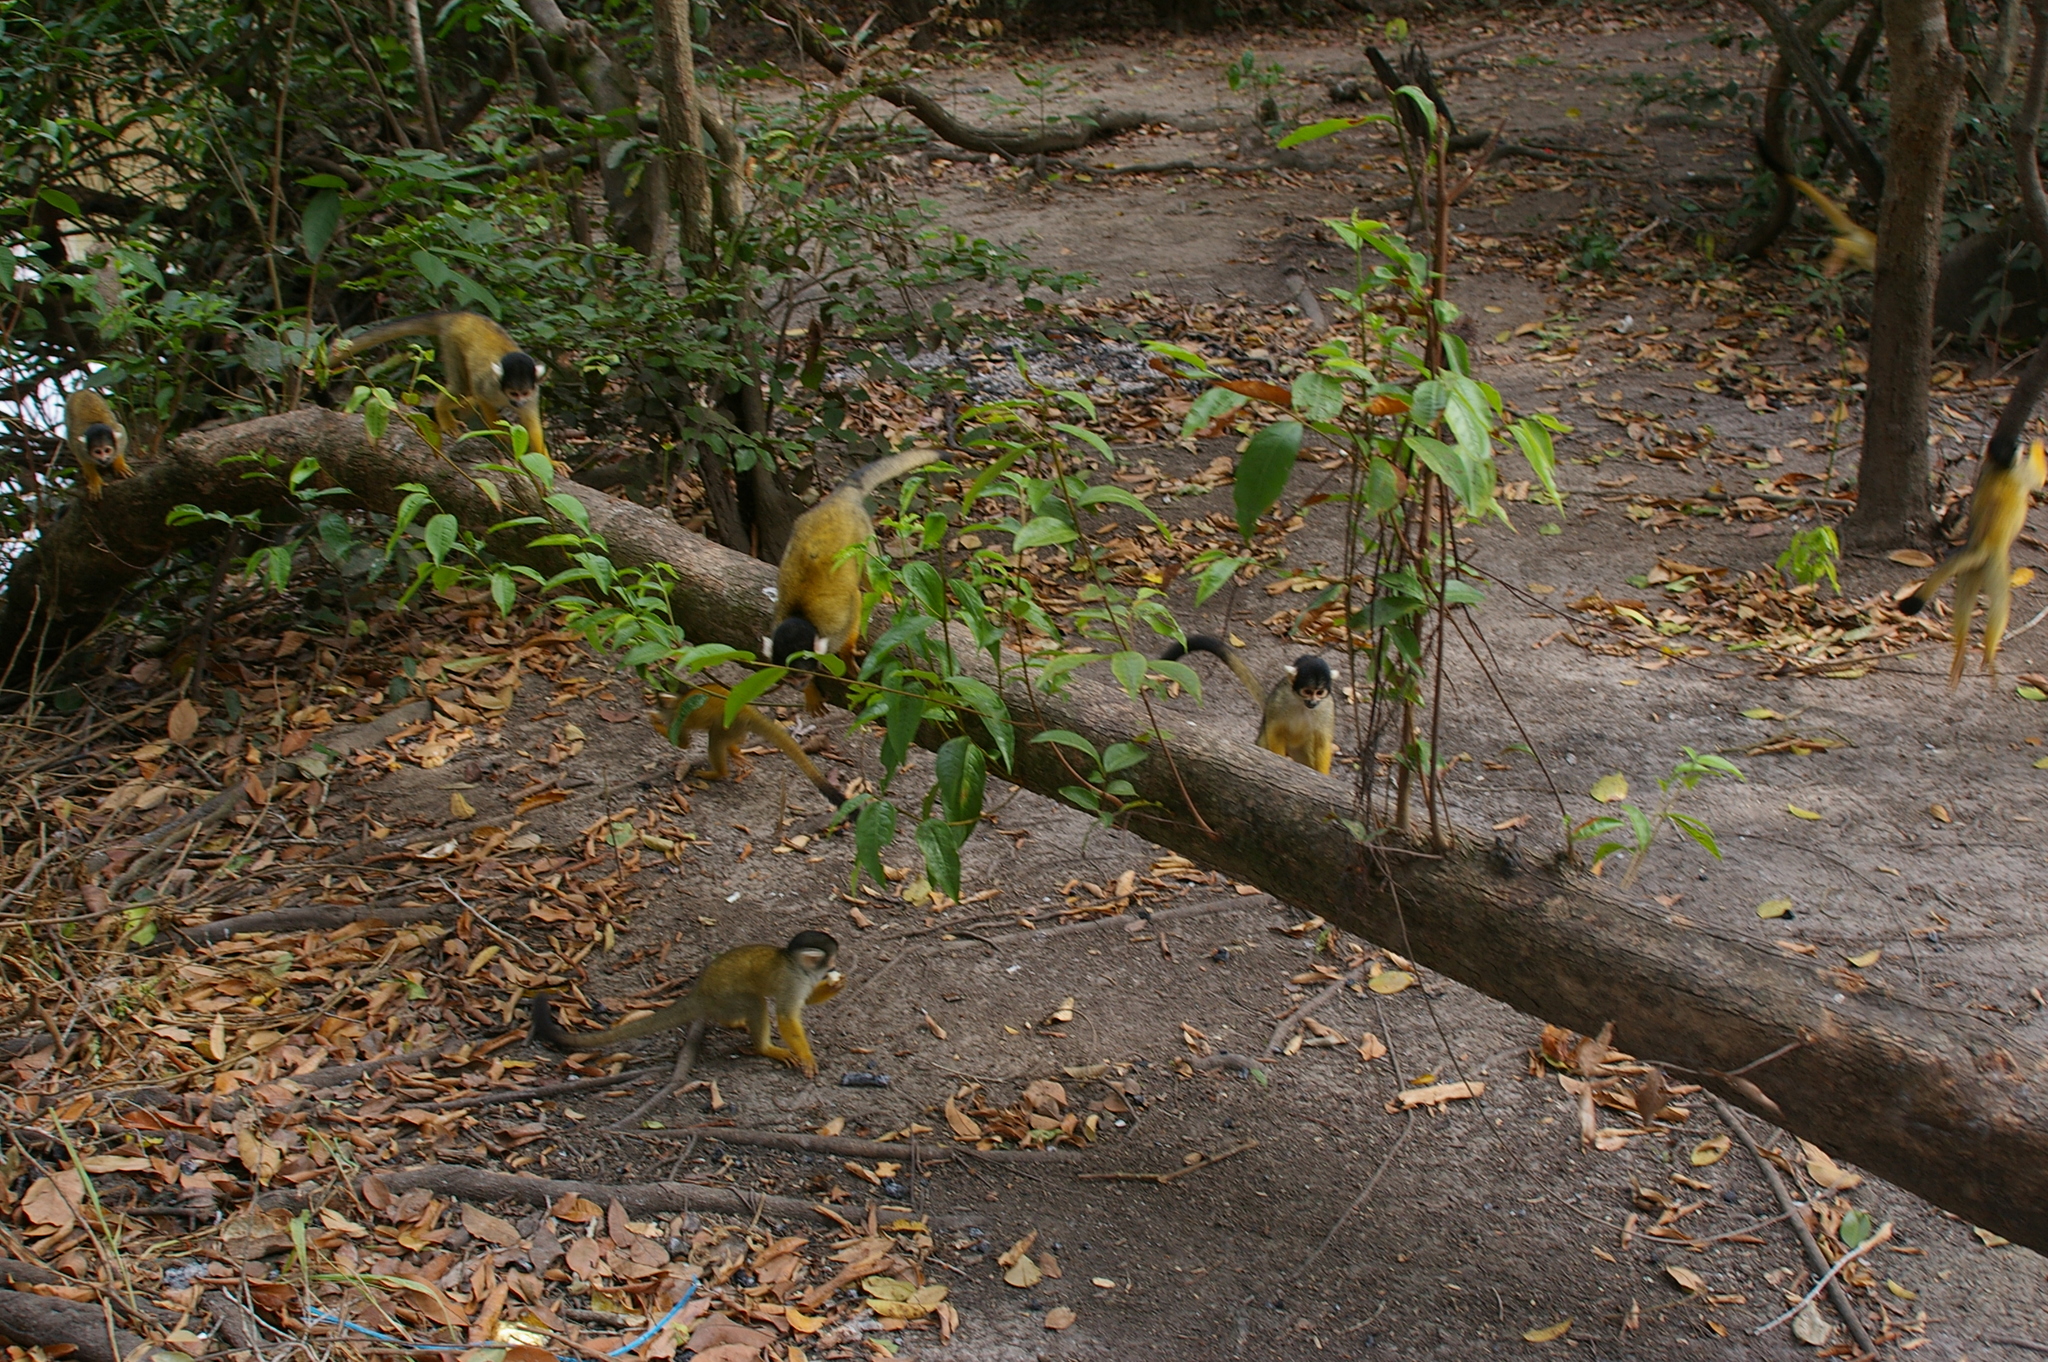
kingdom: Animalia
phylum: Chordata
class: Mammalia
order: Primates
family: Cebidae
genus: Saimiri
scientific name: Saimiri boliviensis
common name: Black-capped squirrel monkey
